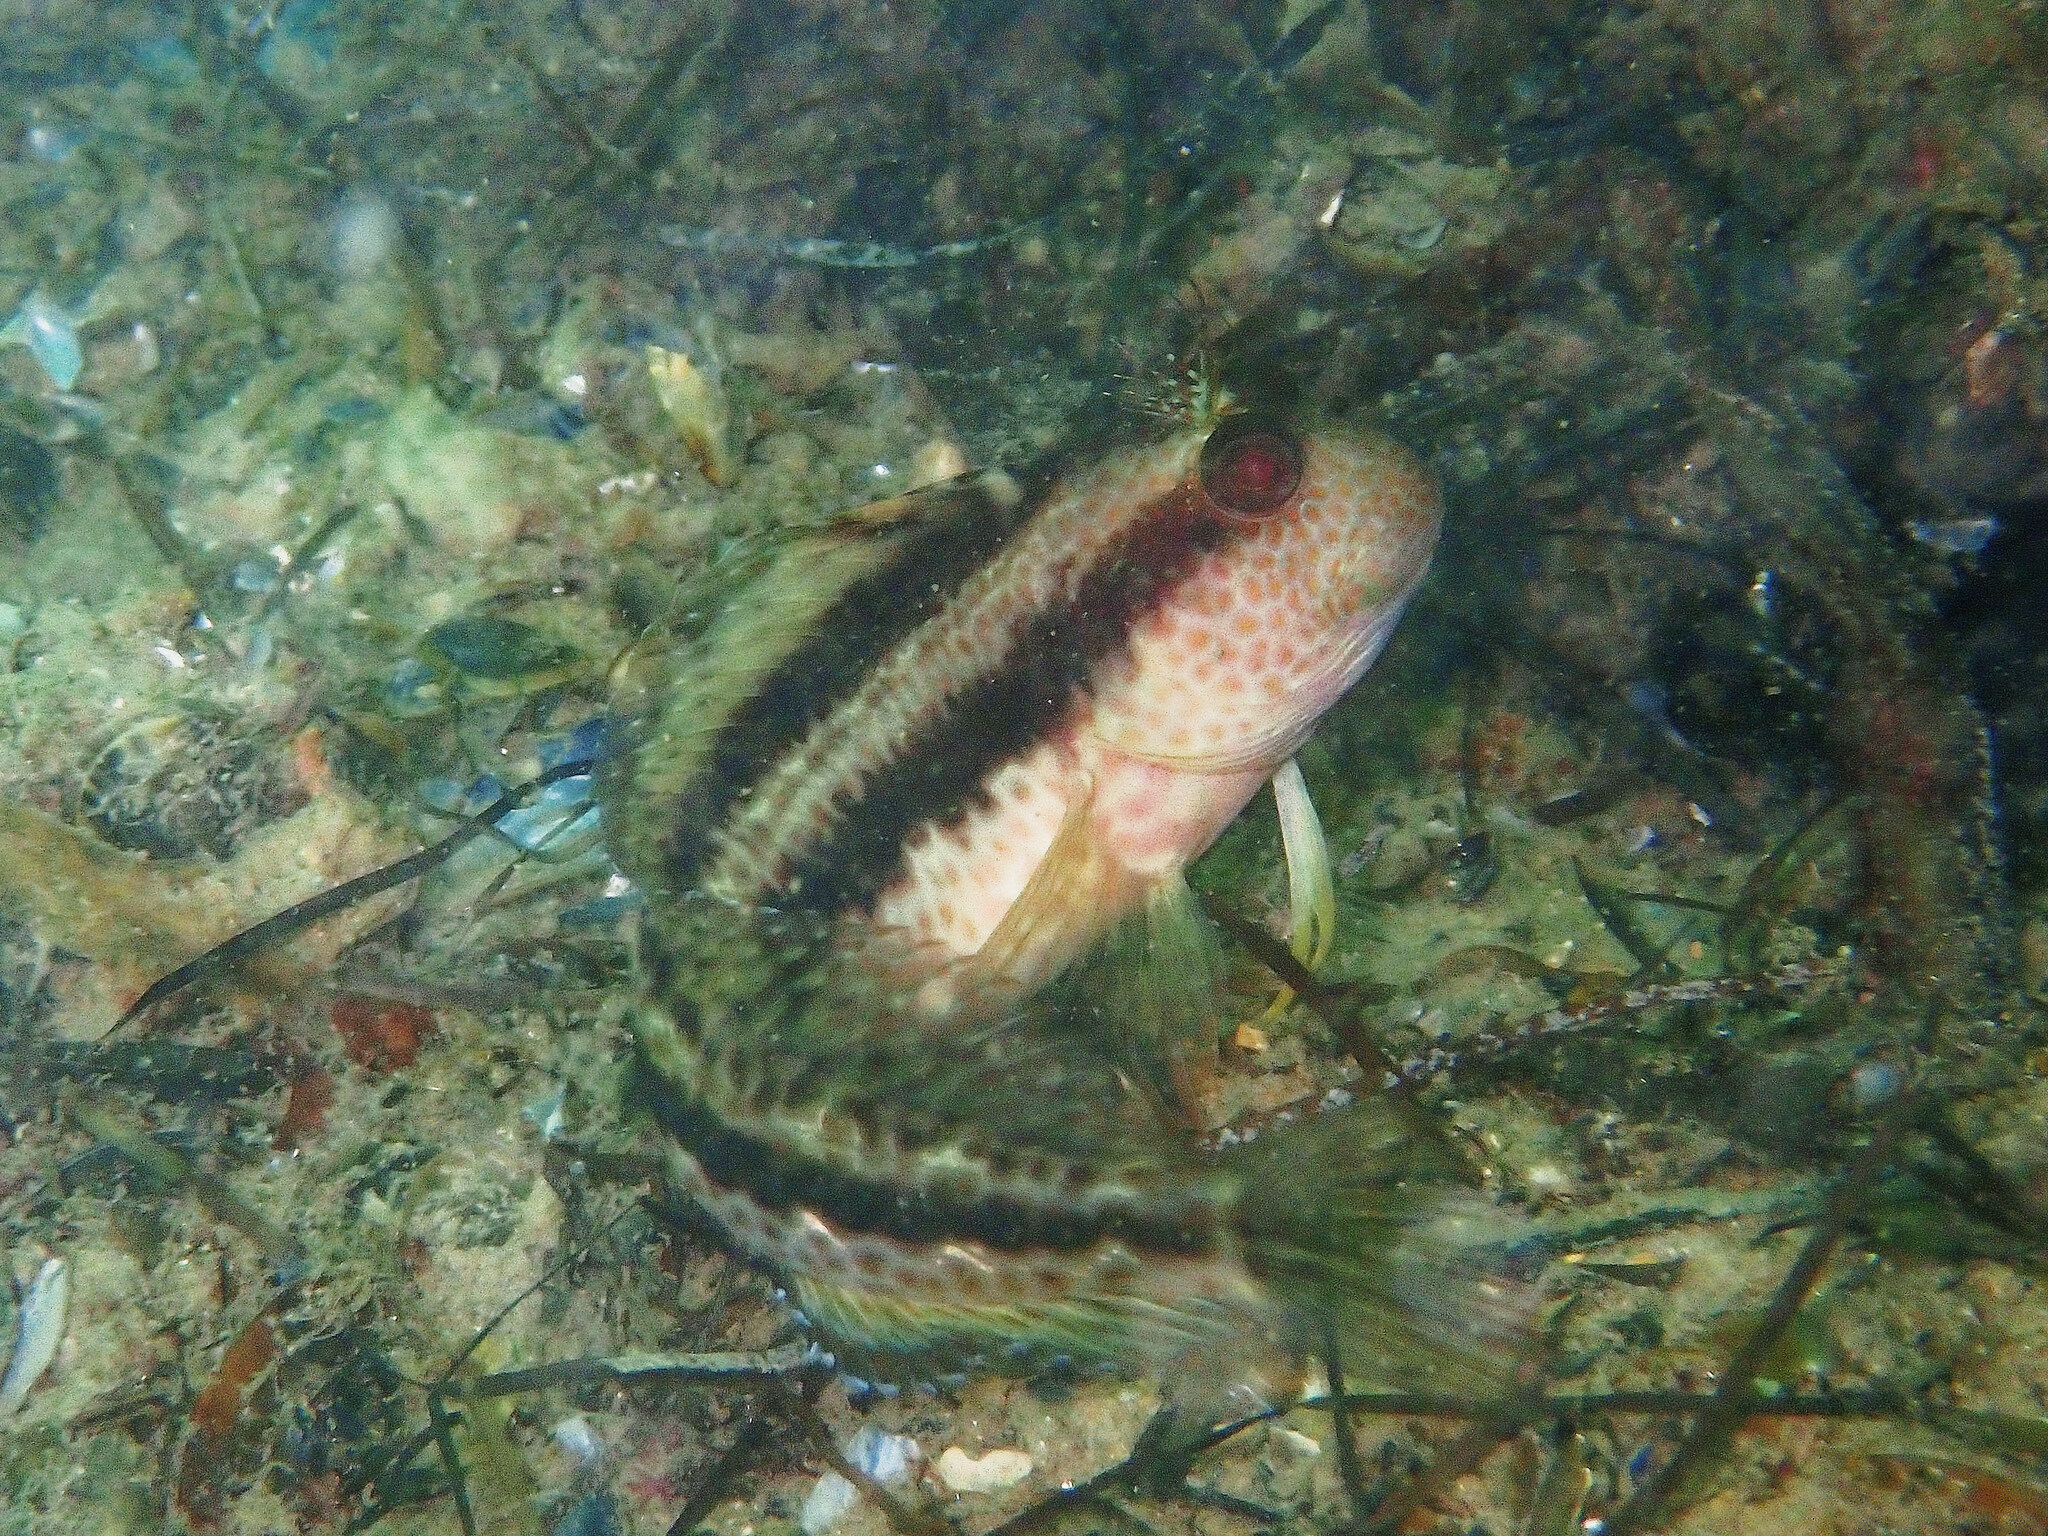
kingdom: Animalia
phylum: Chordata
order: Perciformes
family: Blenniidae
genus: Parablennius
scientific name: Parablennius pilicornis
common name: Ringneck blenny
